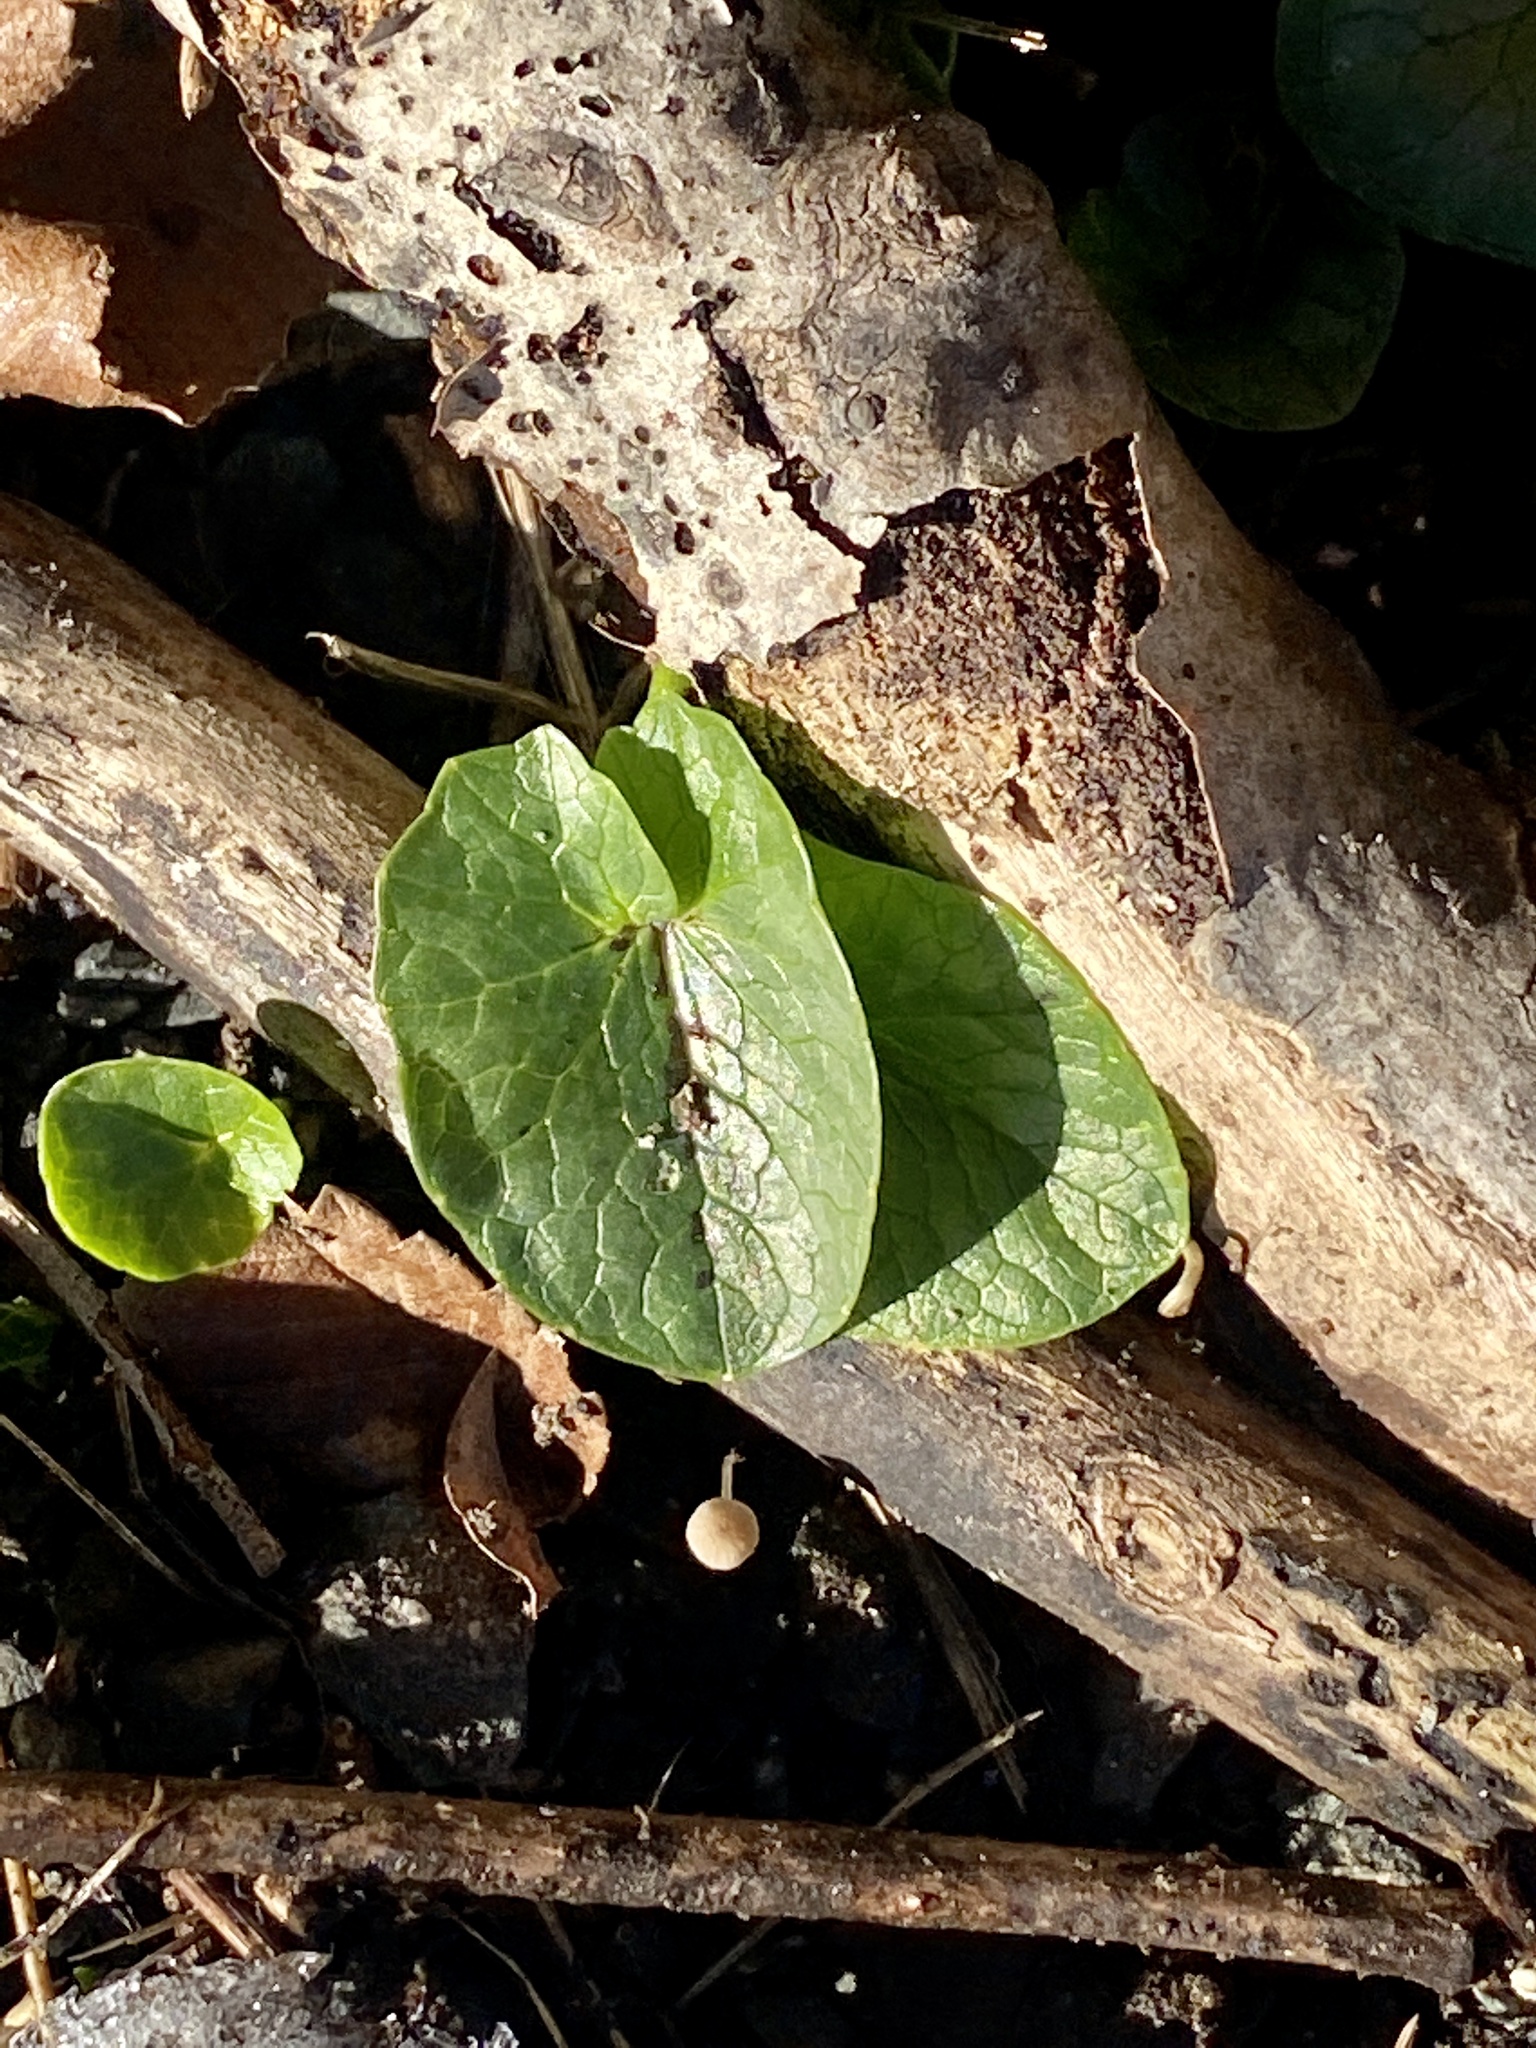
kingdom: Plantae
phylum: Tracheophyta
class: Magnoliopsida
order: Ranunculales
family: Ranunculaceae
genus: Ficaria
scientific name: Ficaria verna
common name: Lesser celandine
